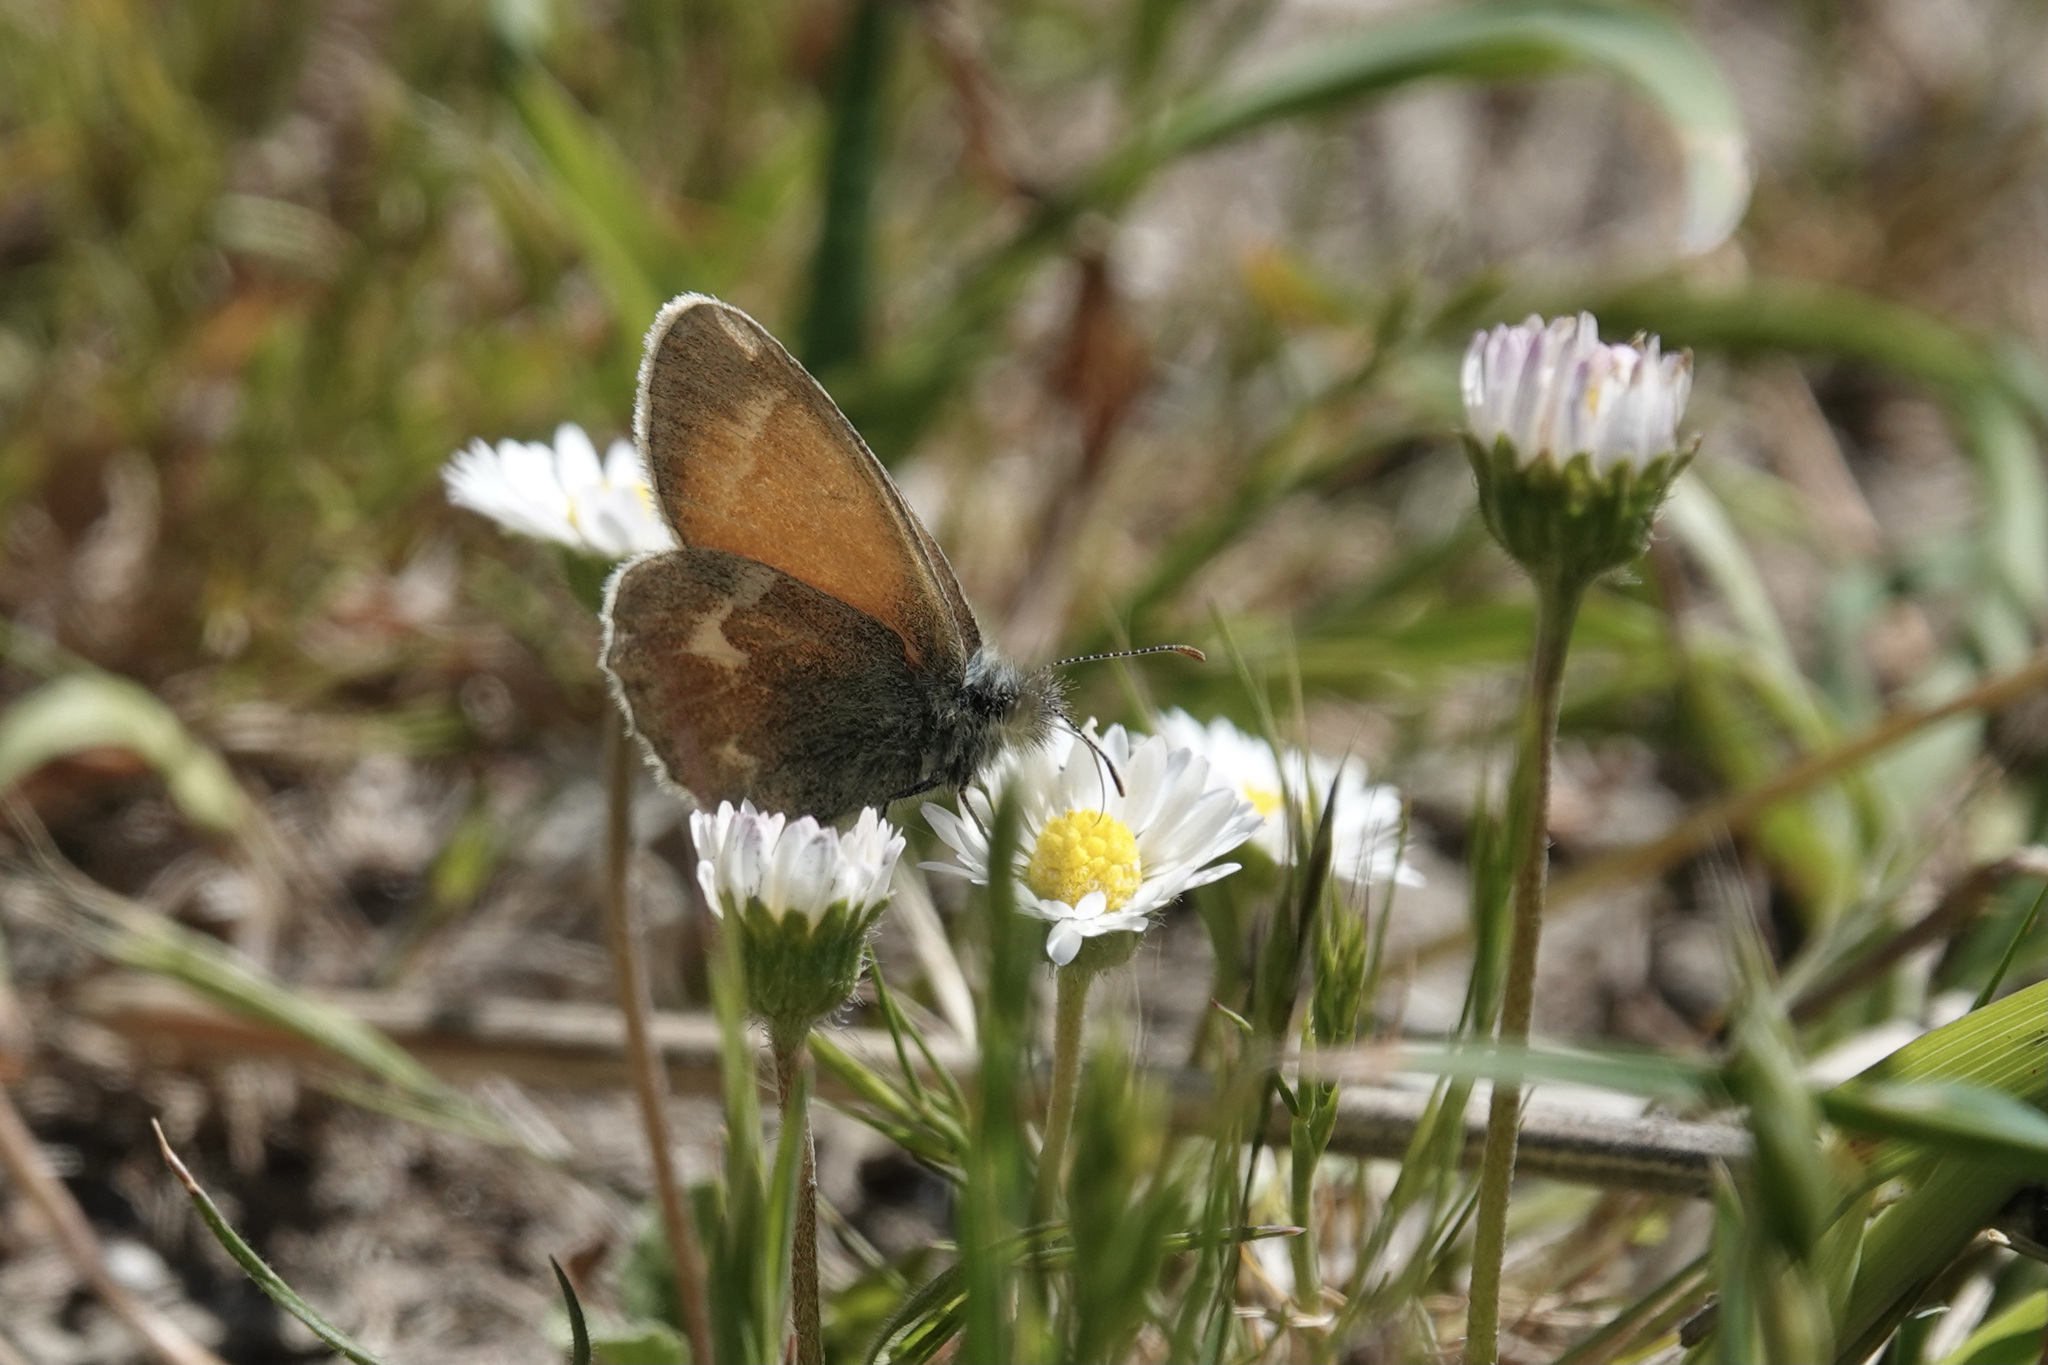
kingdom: Animalia
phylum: Arthropoda
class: Insecta
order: Lepidoptera
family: Nymphalidae
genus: Coenonympha
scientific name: Coenonympha california
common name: Common ringlet
